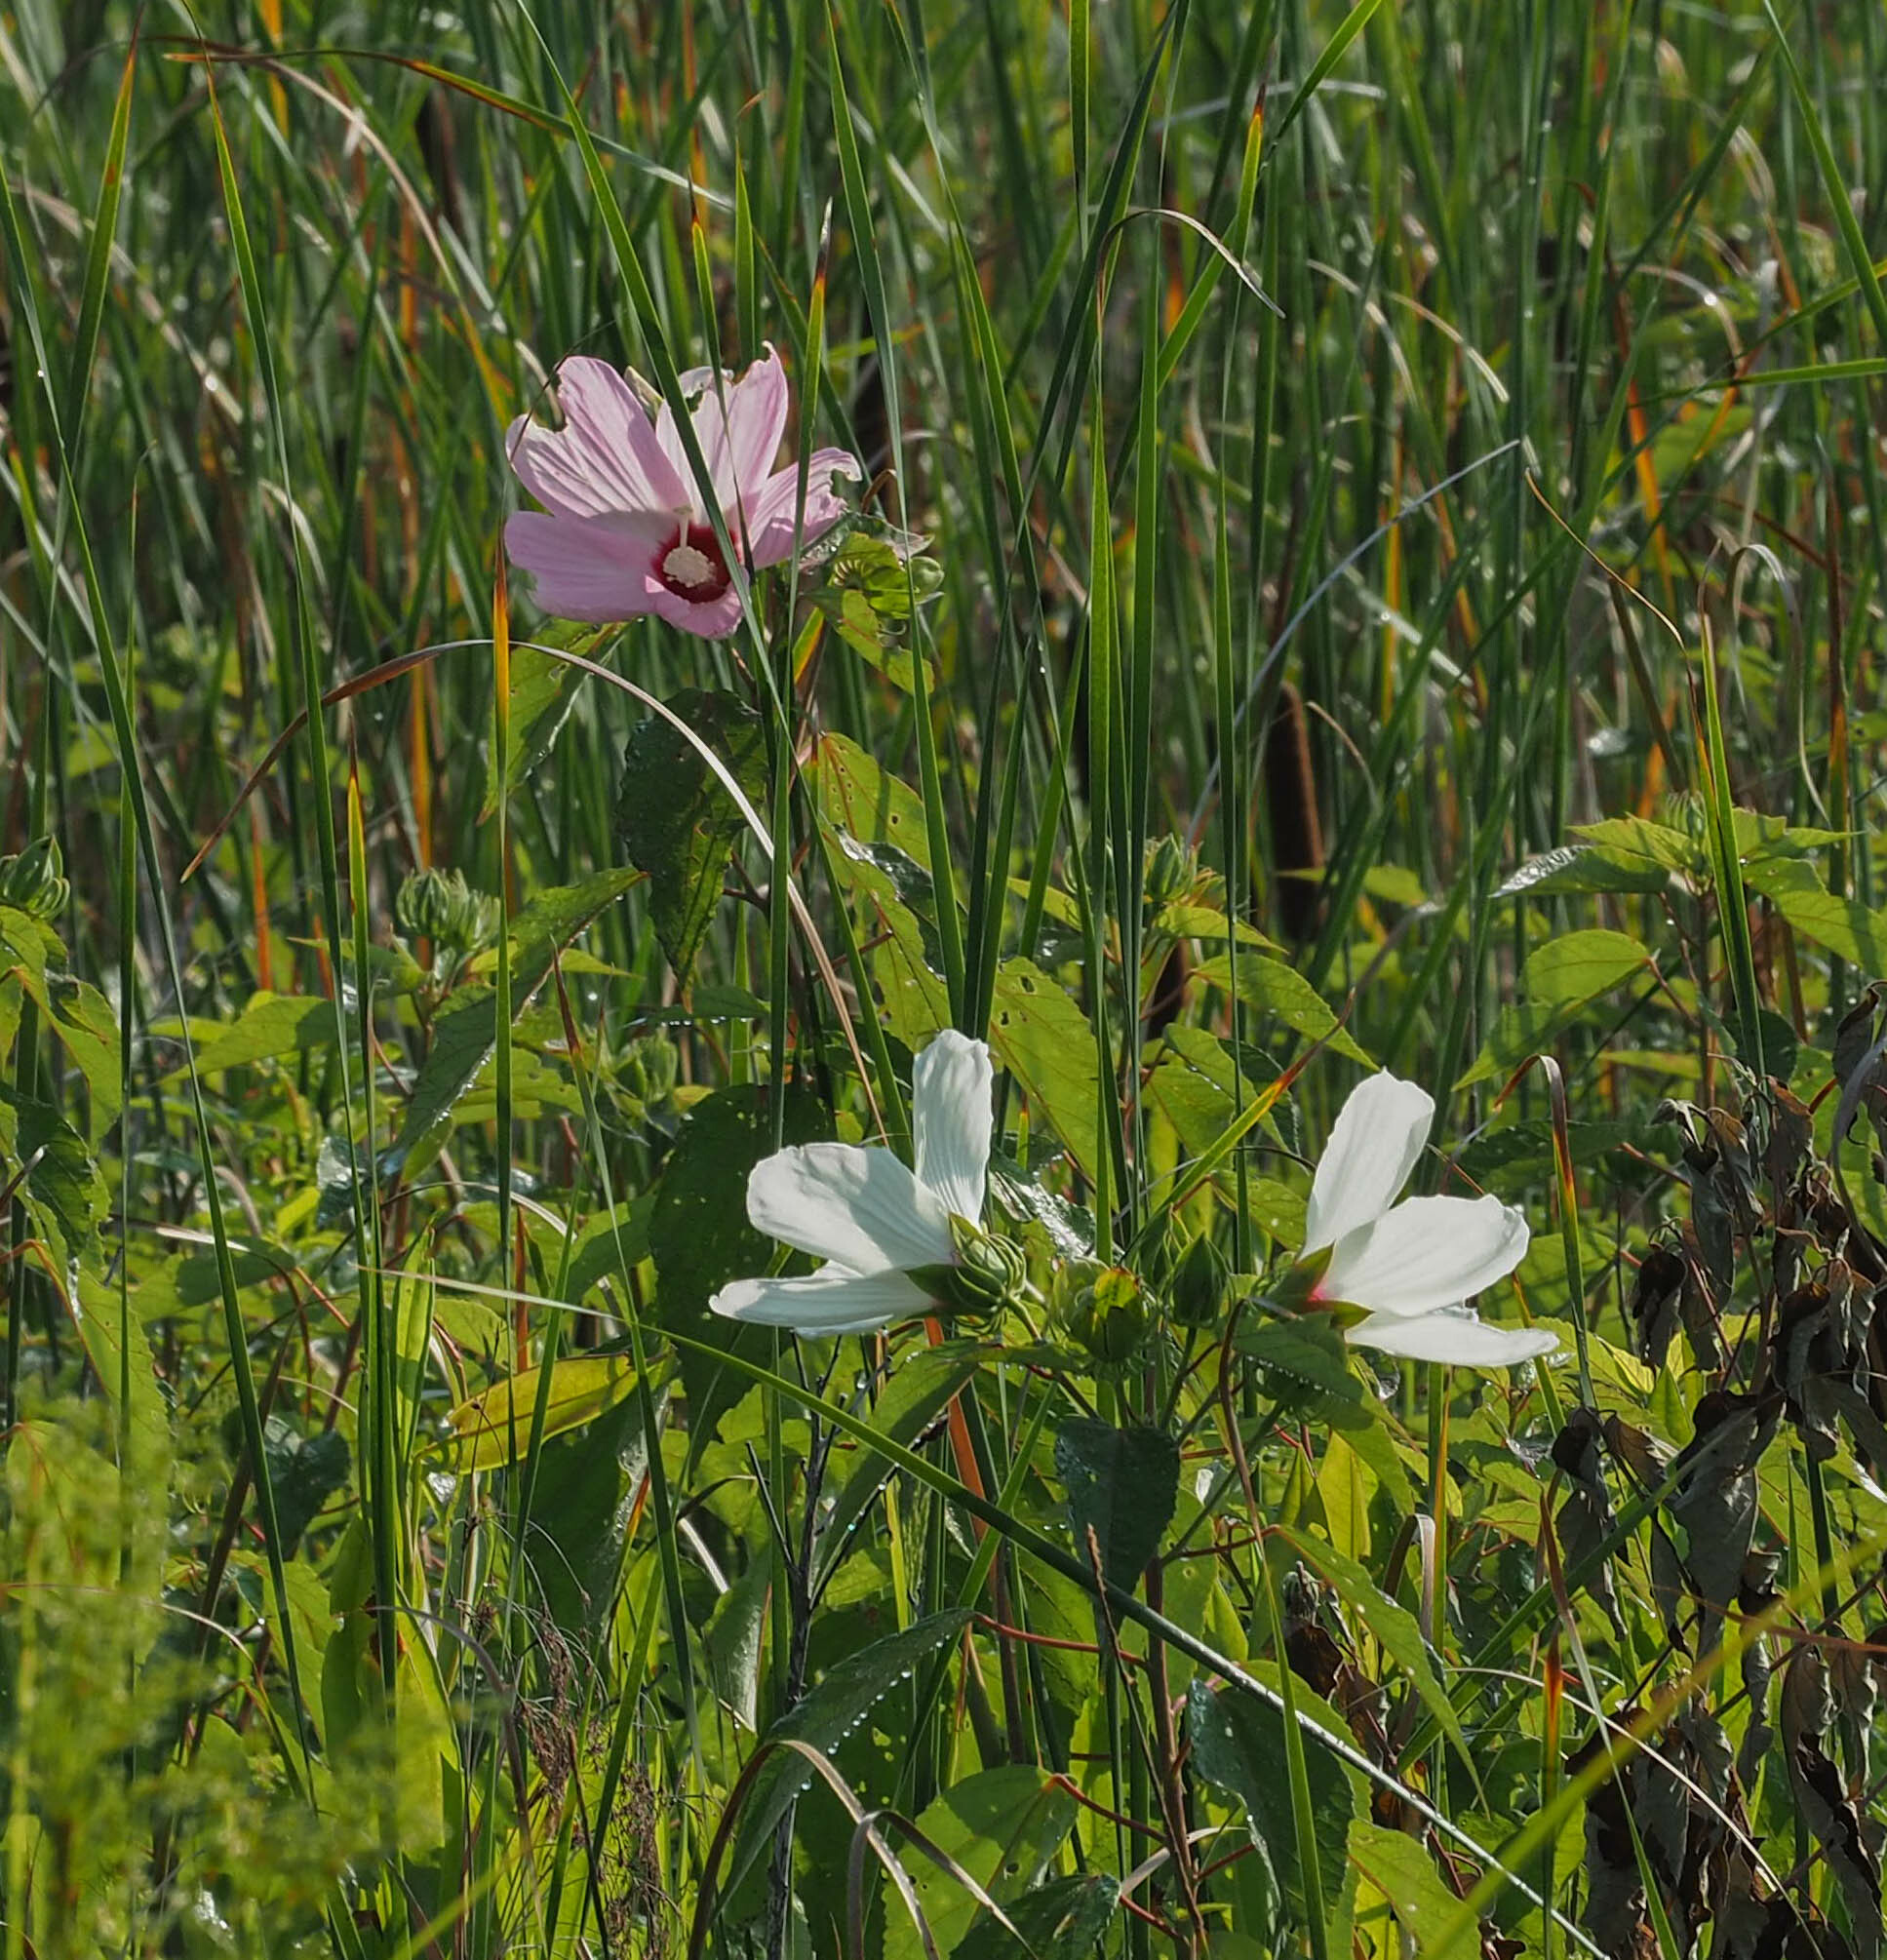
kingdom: Plantae
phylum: Tracheophyta
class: Magnoliopsida
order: Malvales
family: Malvaceae
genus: Hibiscus
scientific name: Hibiscus moscheutos
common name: Common rose-mallow
